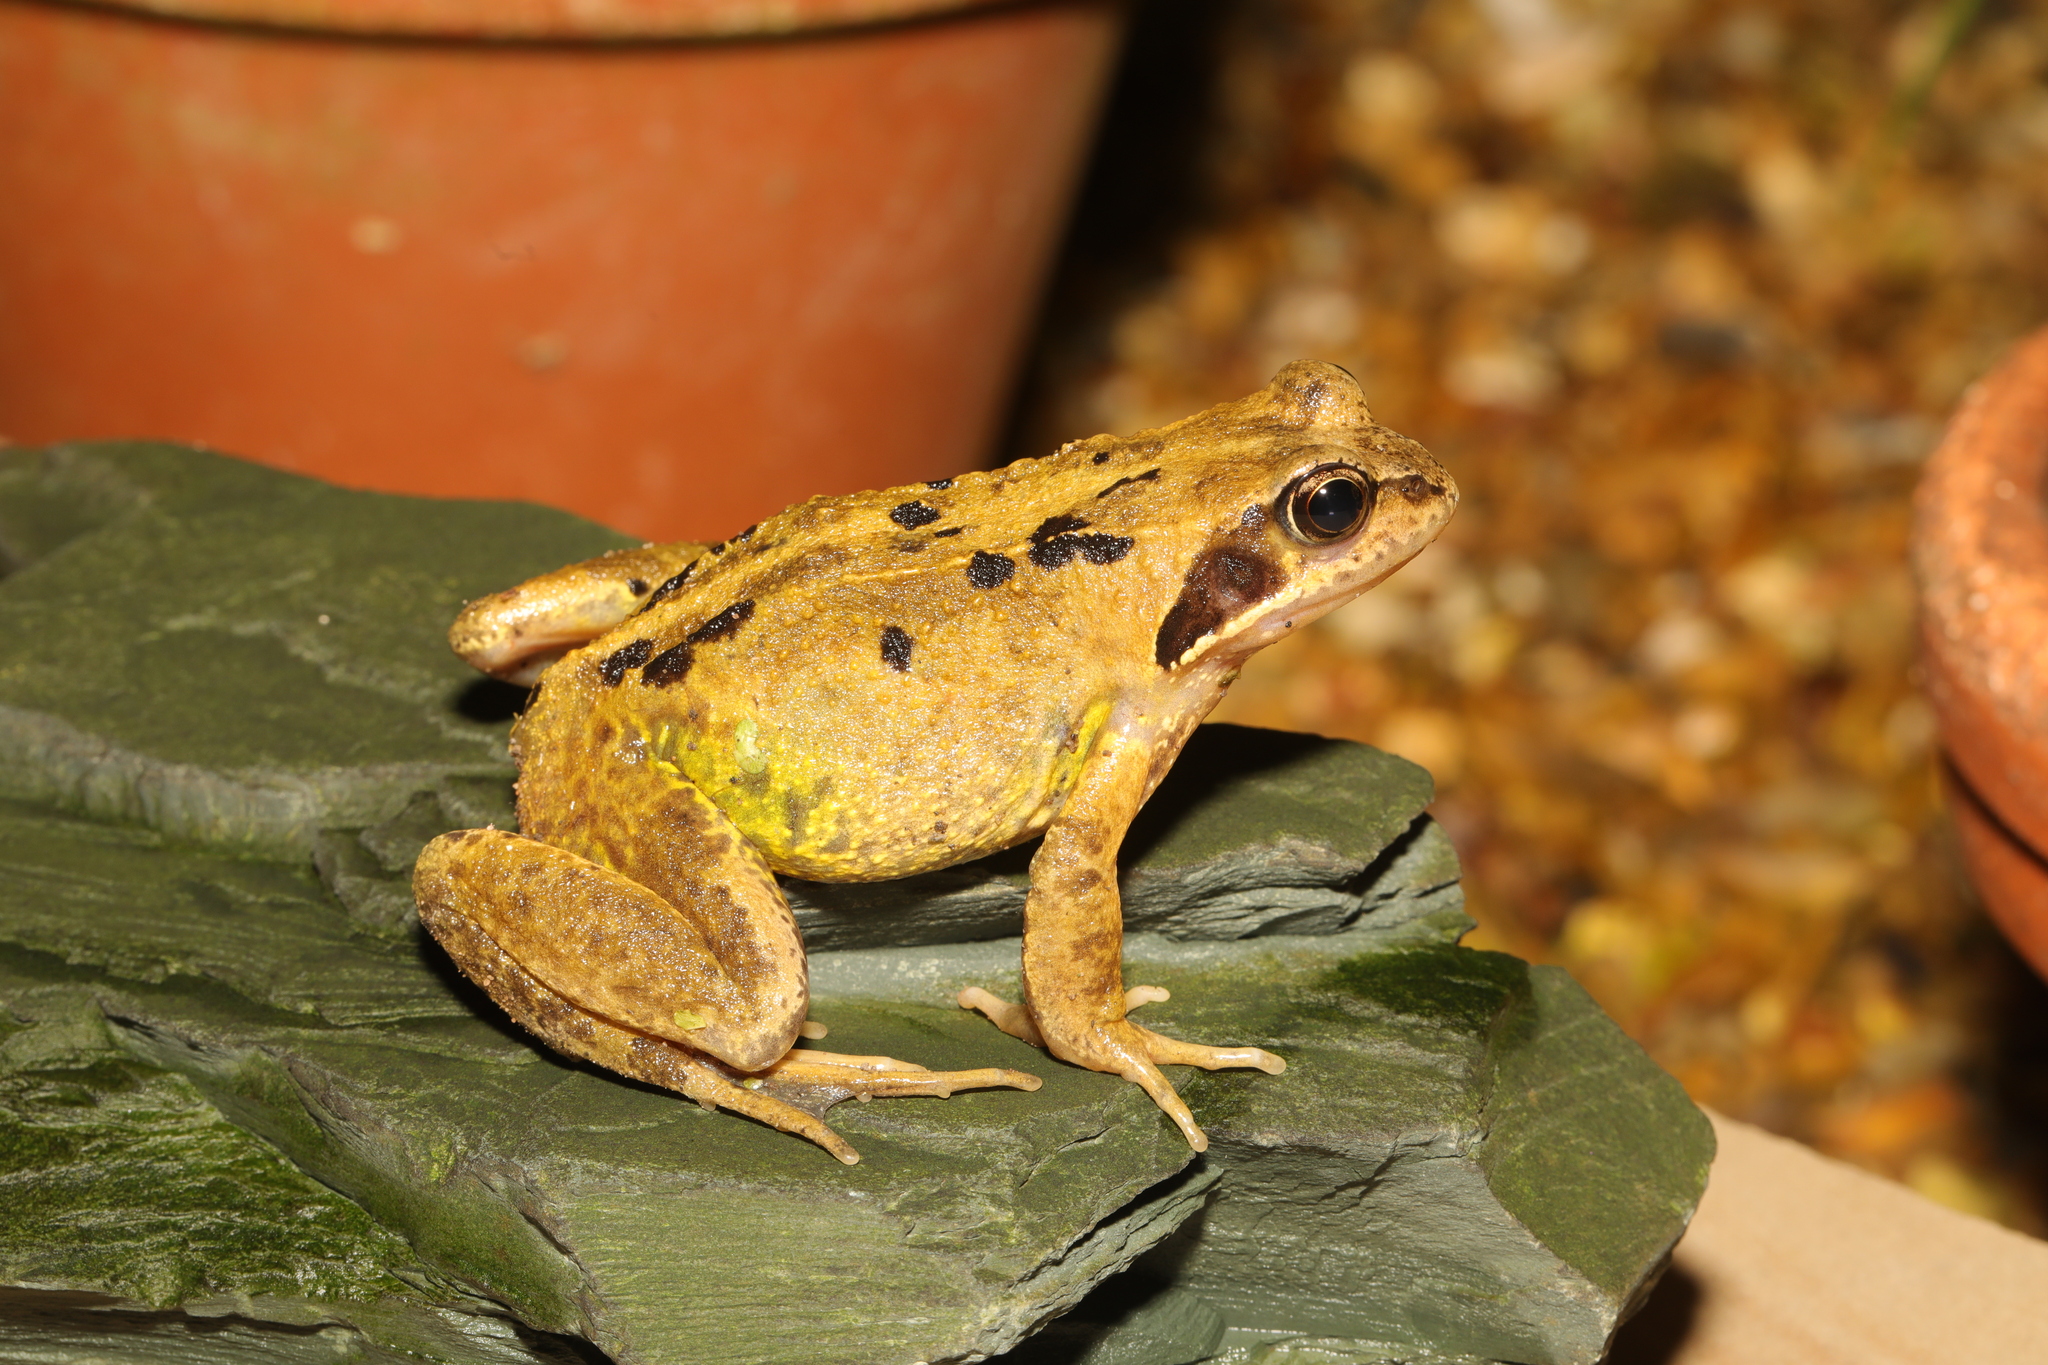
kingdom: Animalia
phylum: Chordata
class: Amphibia
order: Anura
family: Ranidae
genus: Rana
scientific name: Rana temporaria
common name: Common frog
